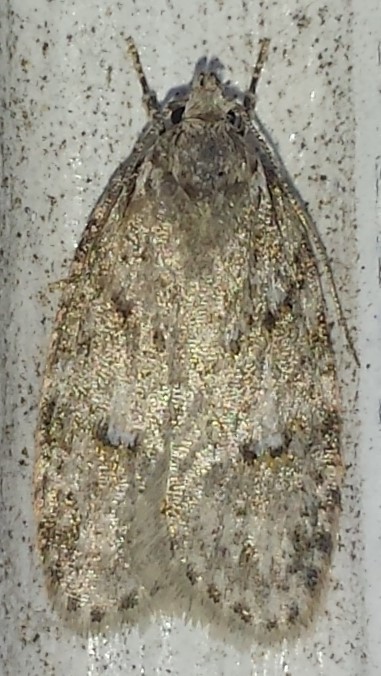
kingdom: Animalia
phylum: Arthropoda
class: Insecta
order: Lepidoptera
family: Depressariidae
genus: Bibarrambla
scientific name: Bibarrambla allenella
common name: Bog bibarrambla moth
